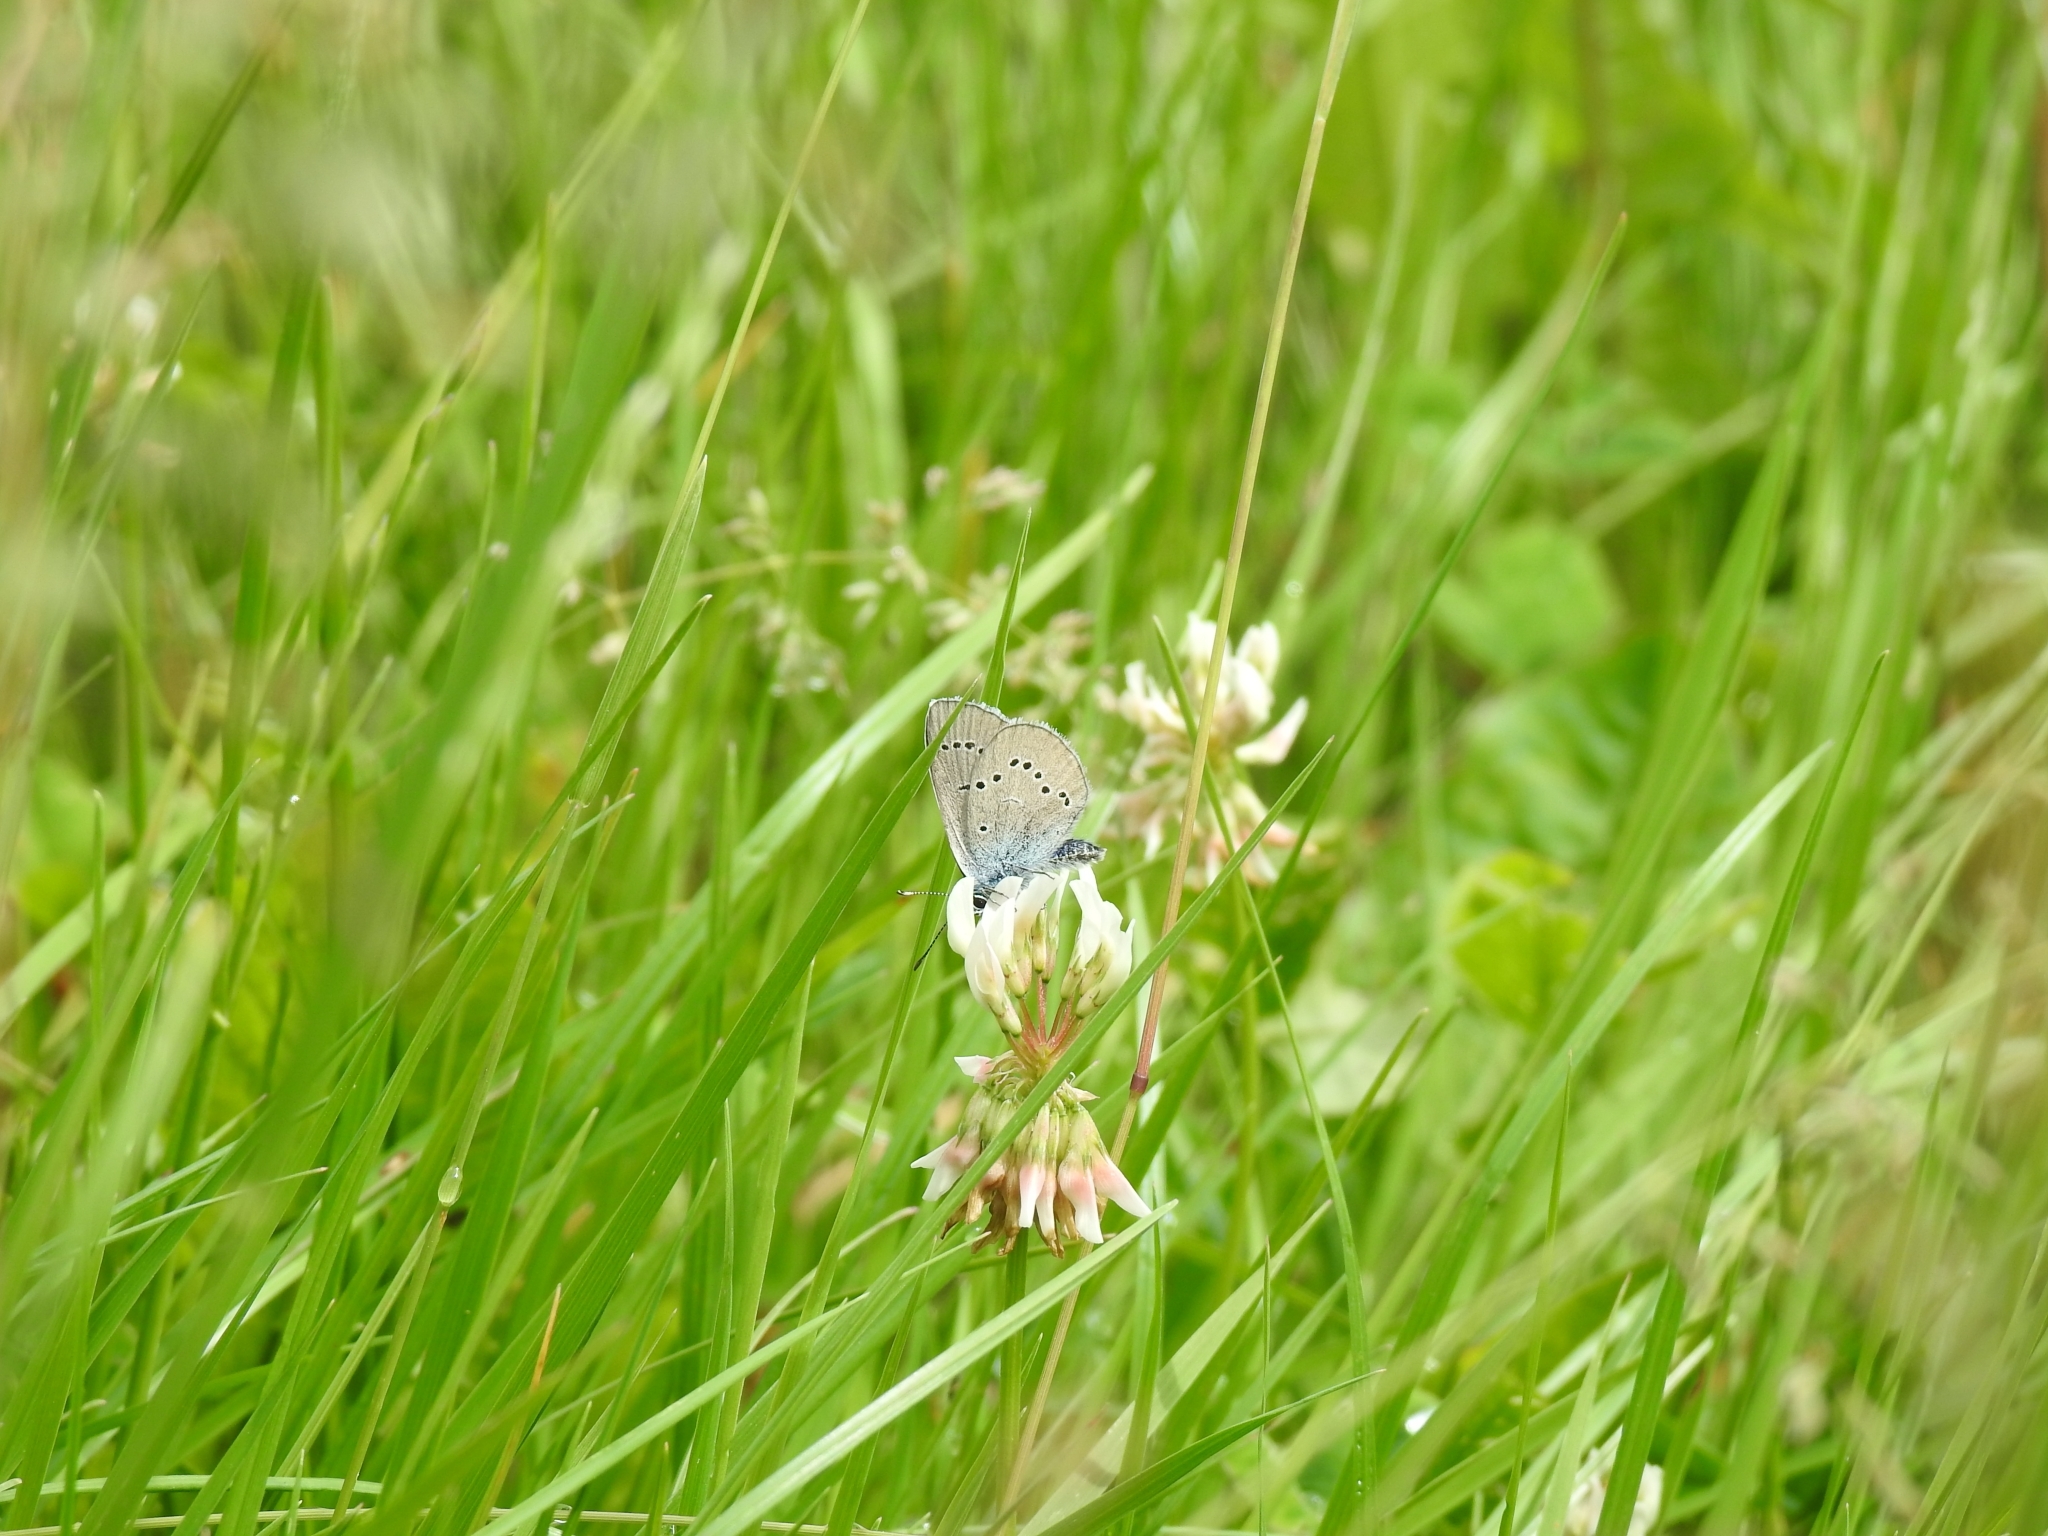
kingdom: Animalia
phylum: Arthropoda
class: Insecta
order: Lepidoptera
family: Lycaenidae
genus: Cyaniris
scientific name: Cyaniris semiargus
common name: Mazarine blue
